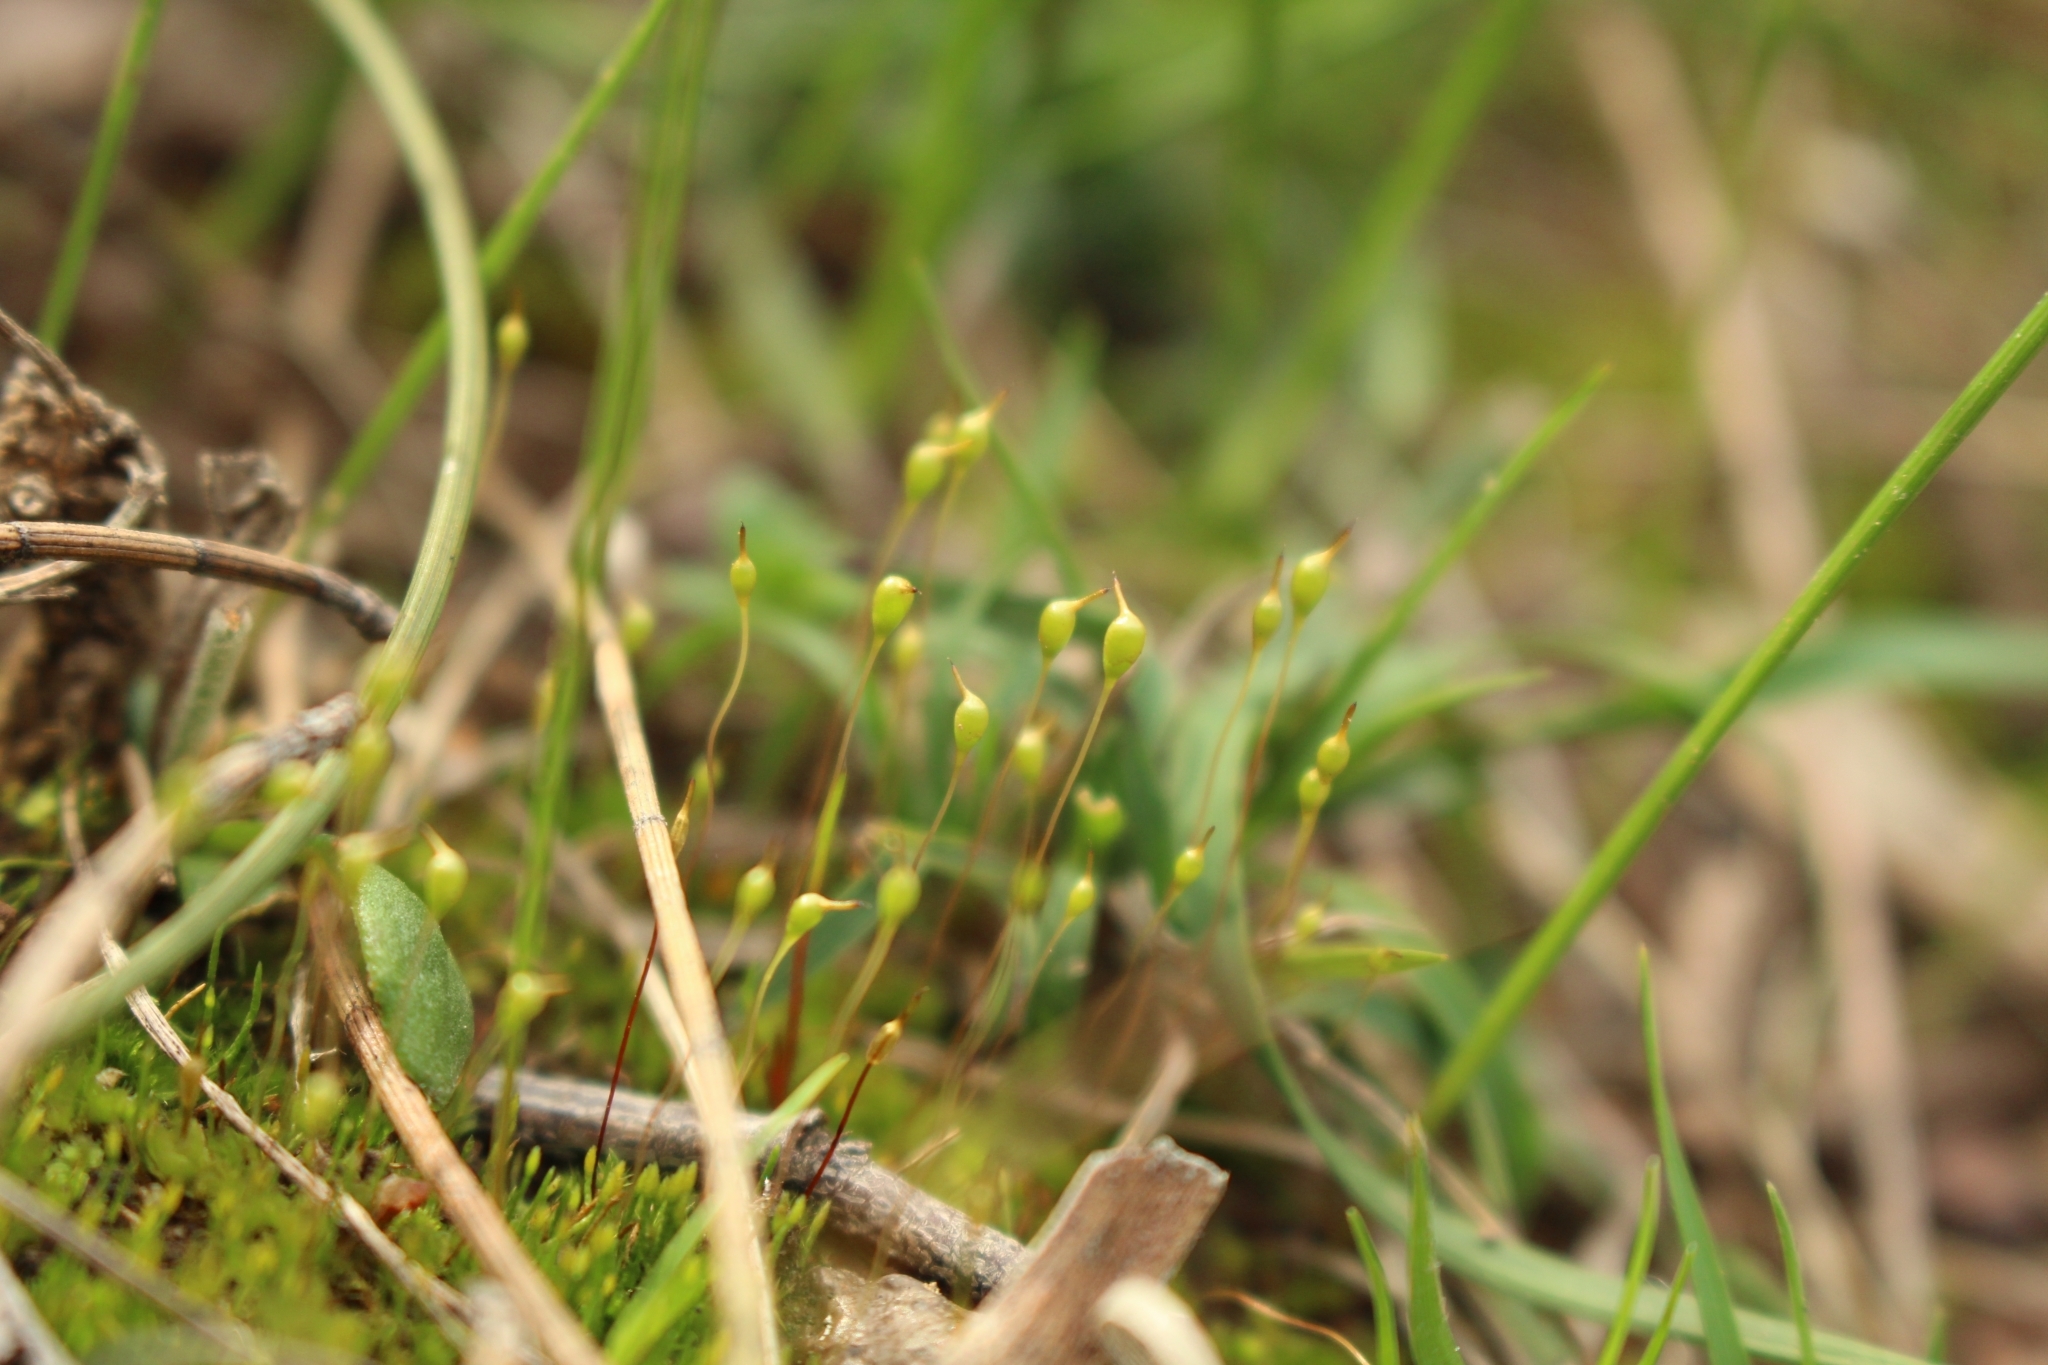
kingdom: Plantae
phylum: Bryophyta
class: Bryopsida
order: Funariales
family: Funariaceae
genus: Entosthodon
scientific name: Entosthodon subnudus
